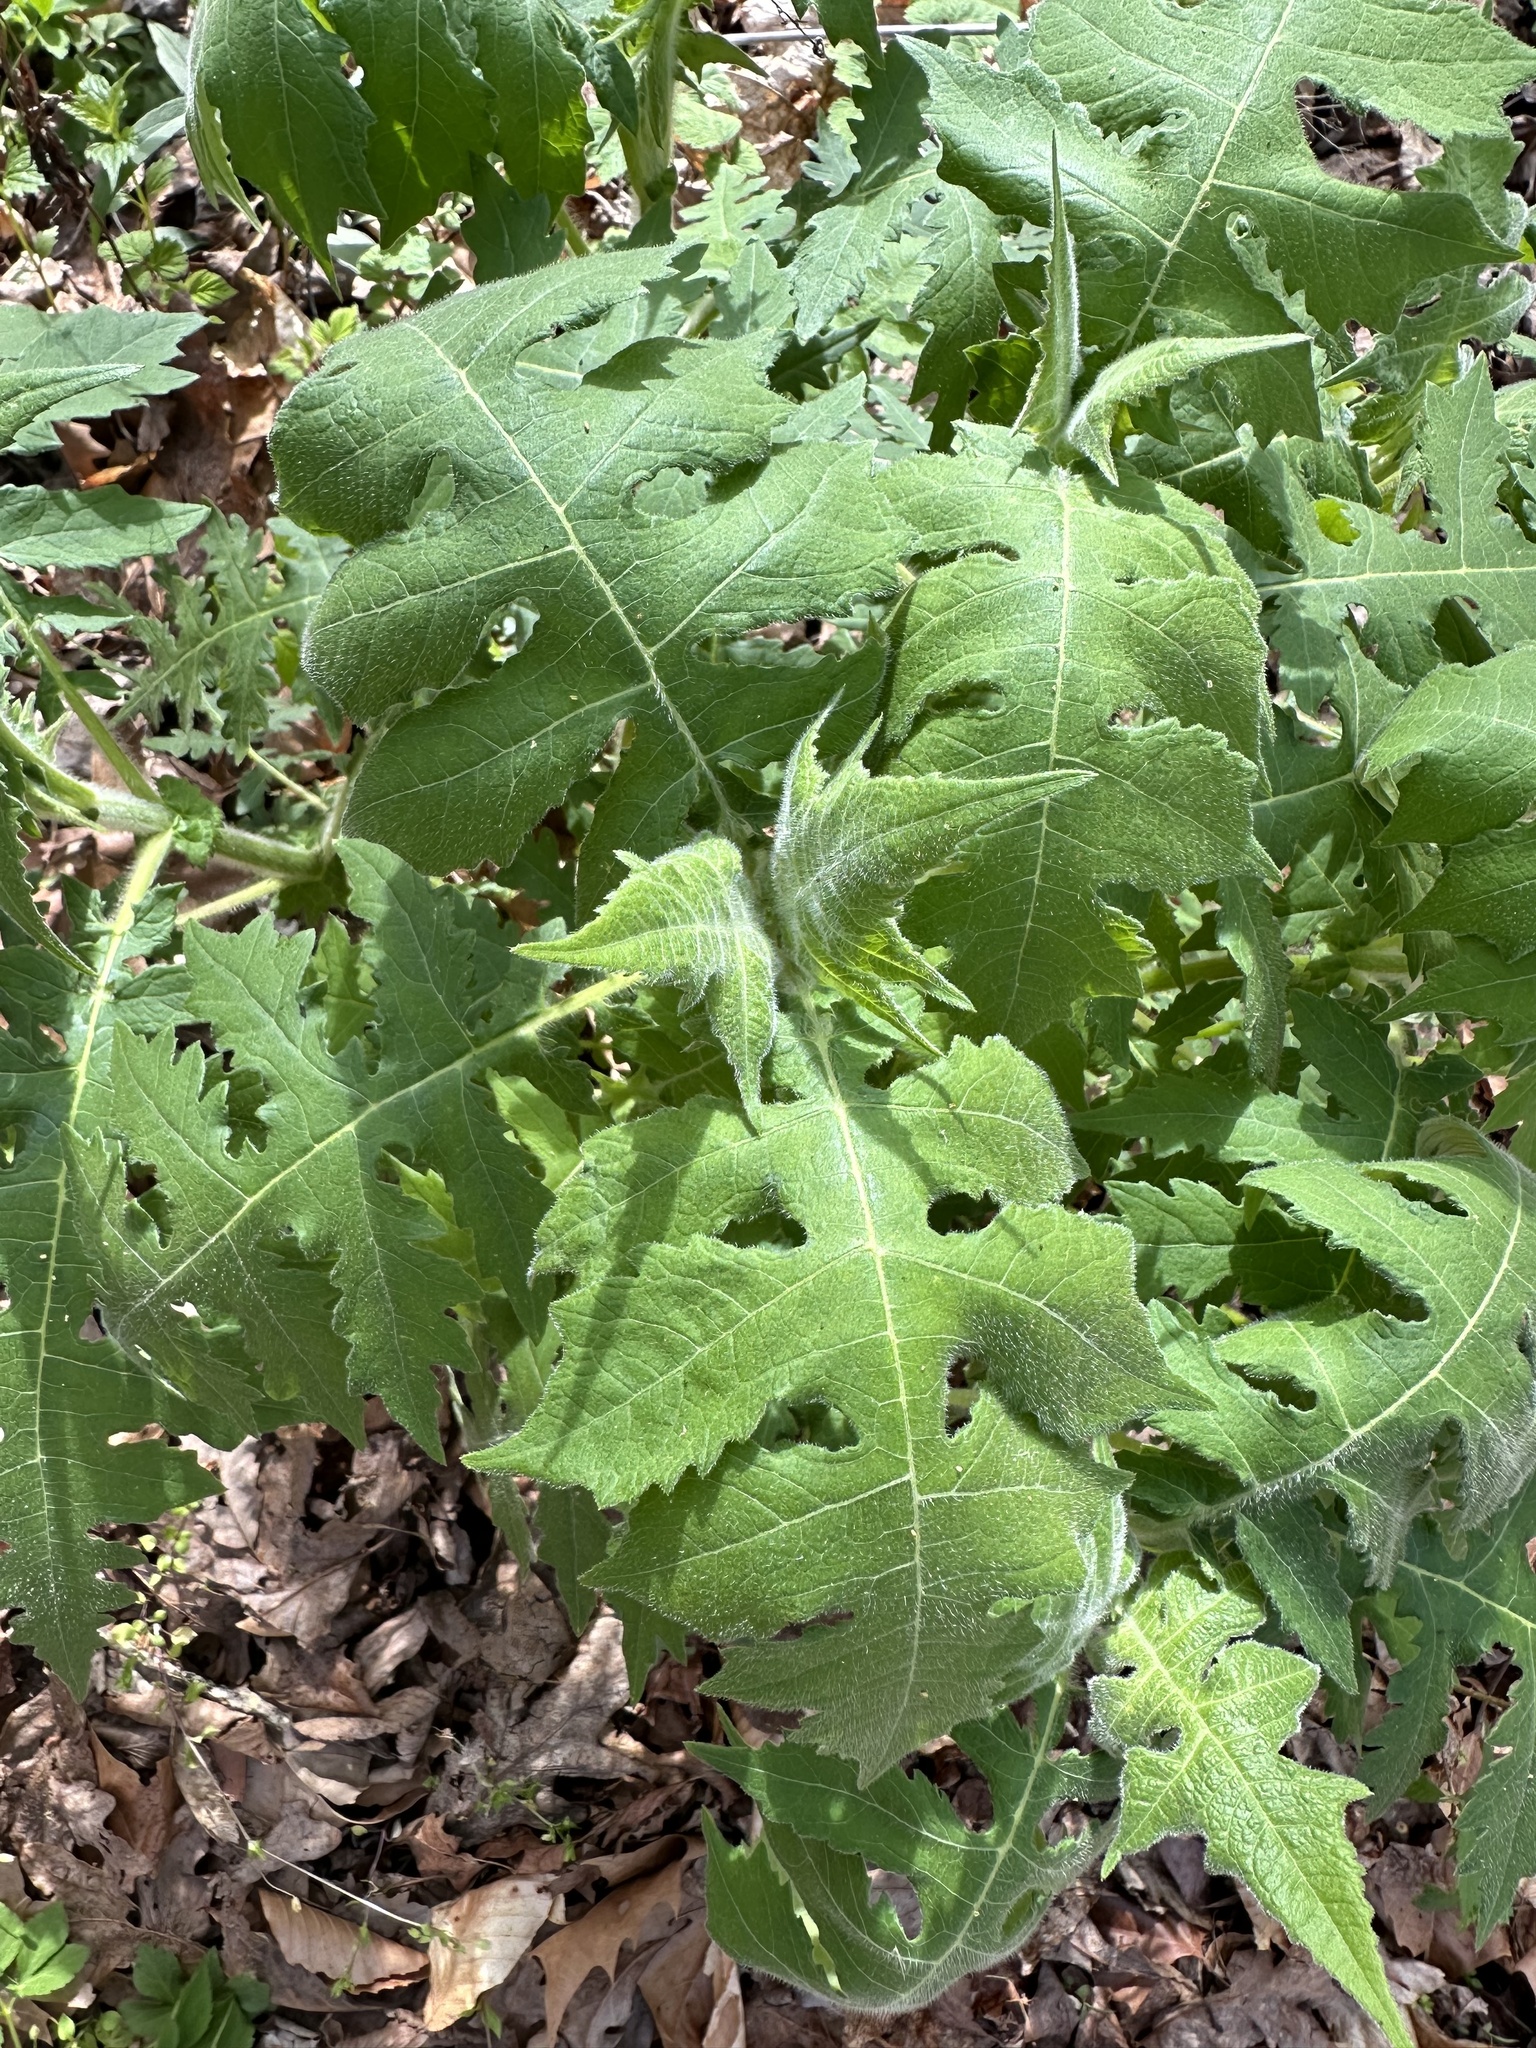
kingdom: Plantae
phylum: Tracheophyta
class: Magnoliopsida
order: Asterales
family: Asteraceae
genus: Polymnia
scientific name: Polymnia canadensis
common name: Pale-flowered leafcup
